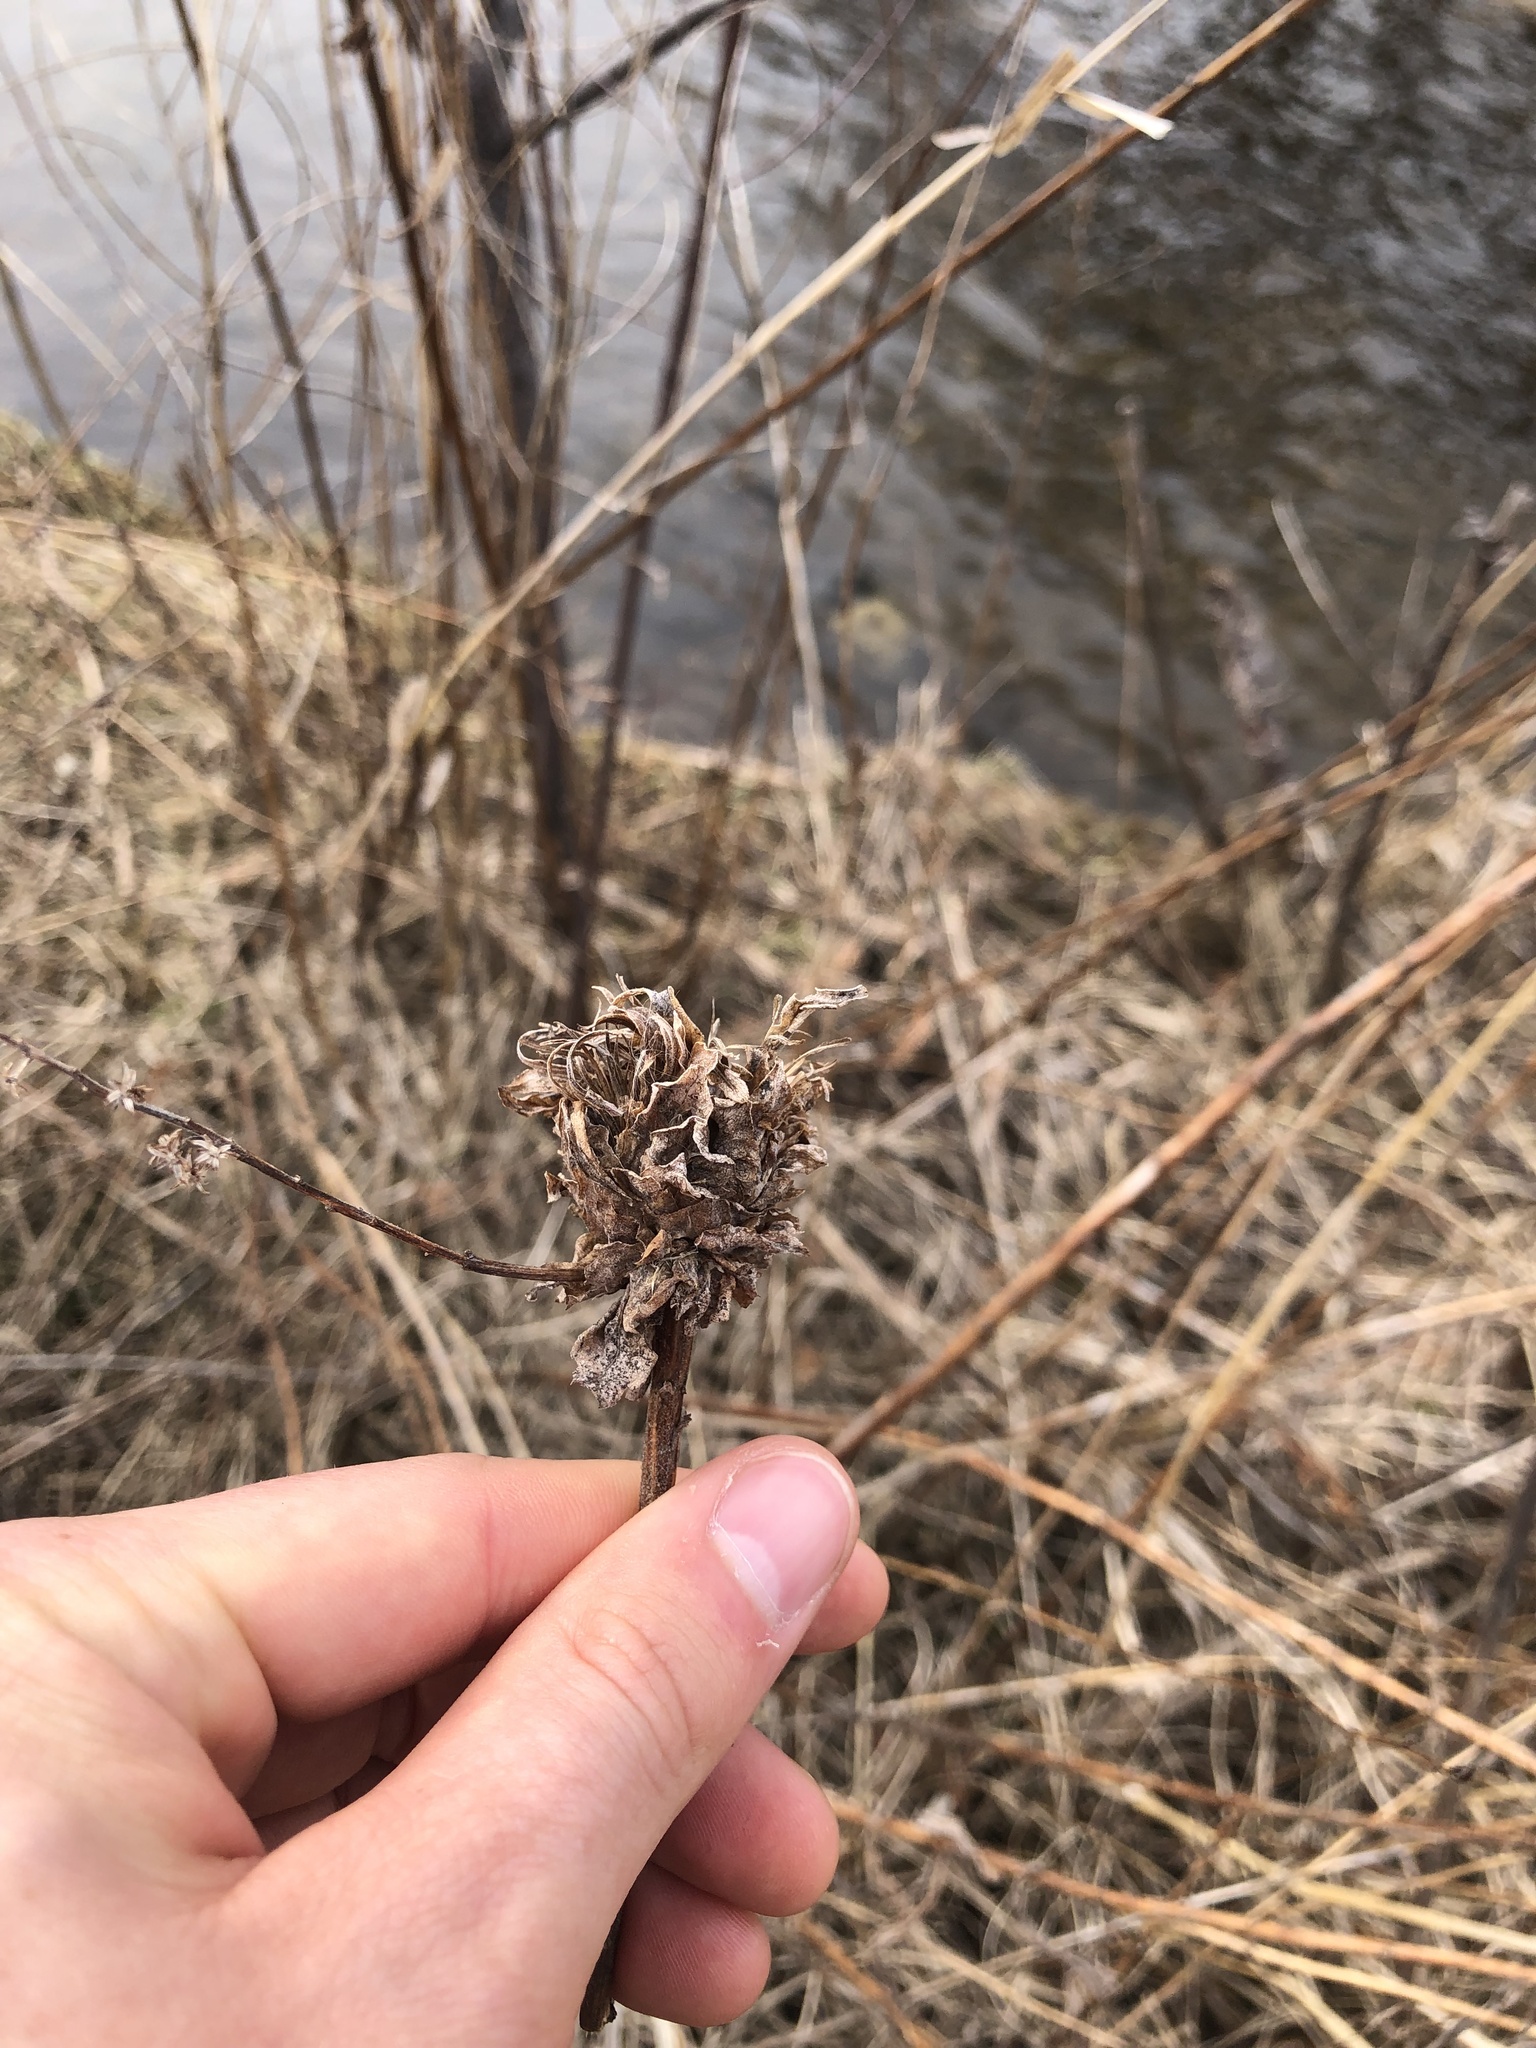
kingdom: Animalia
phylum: Arthropoda
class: Insecta
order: Diptera
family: Cecidomyiidae
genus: Rhopalomyia
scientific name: Rhopalomyia solidaginis
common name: Goldenrod bunch gall midge
